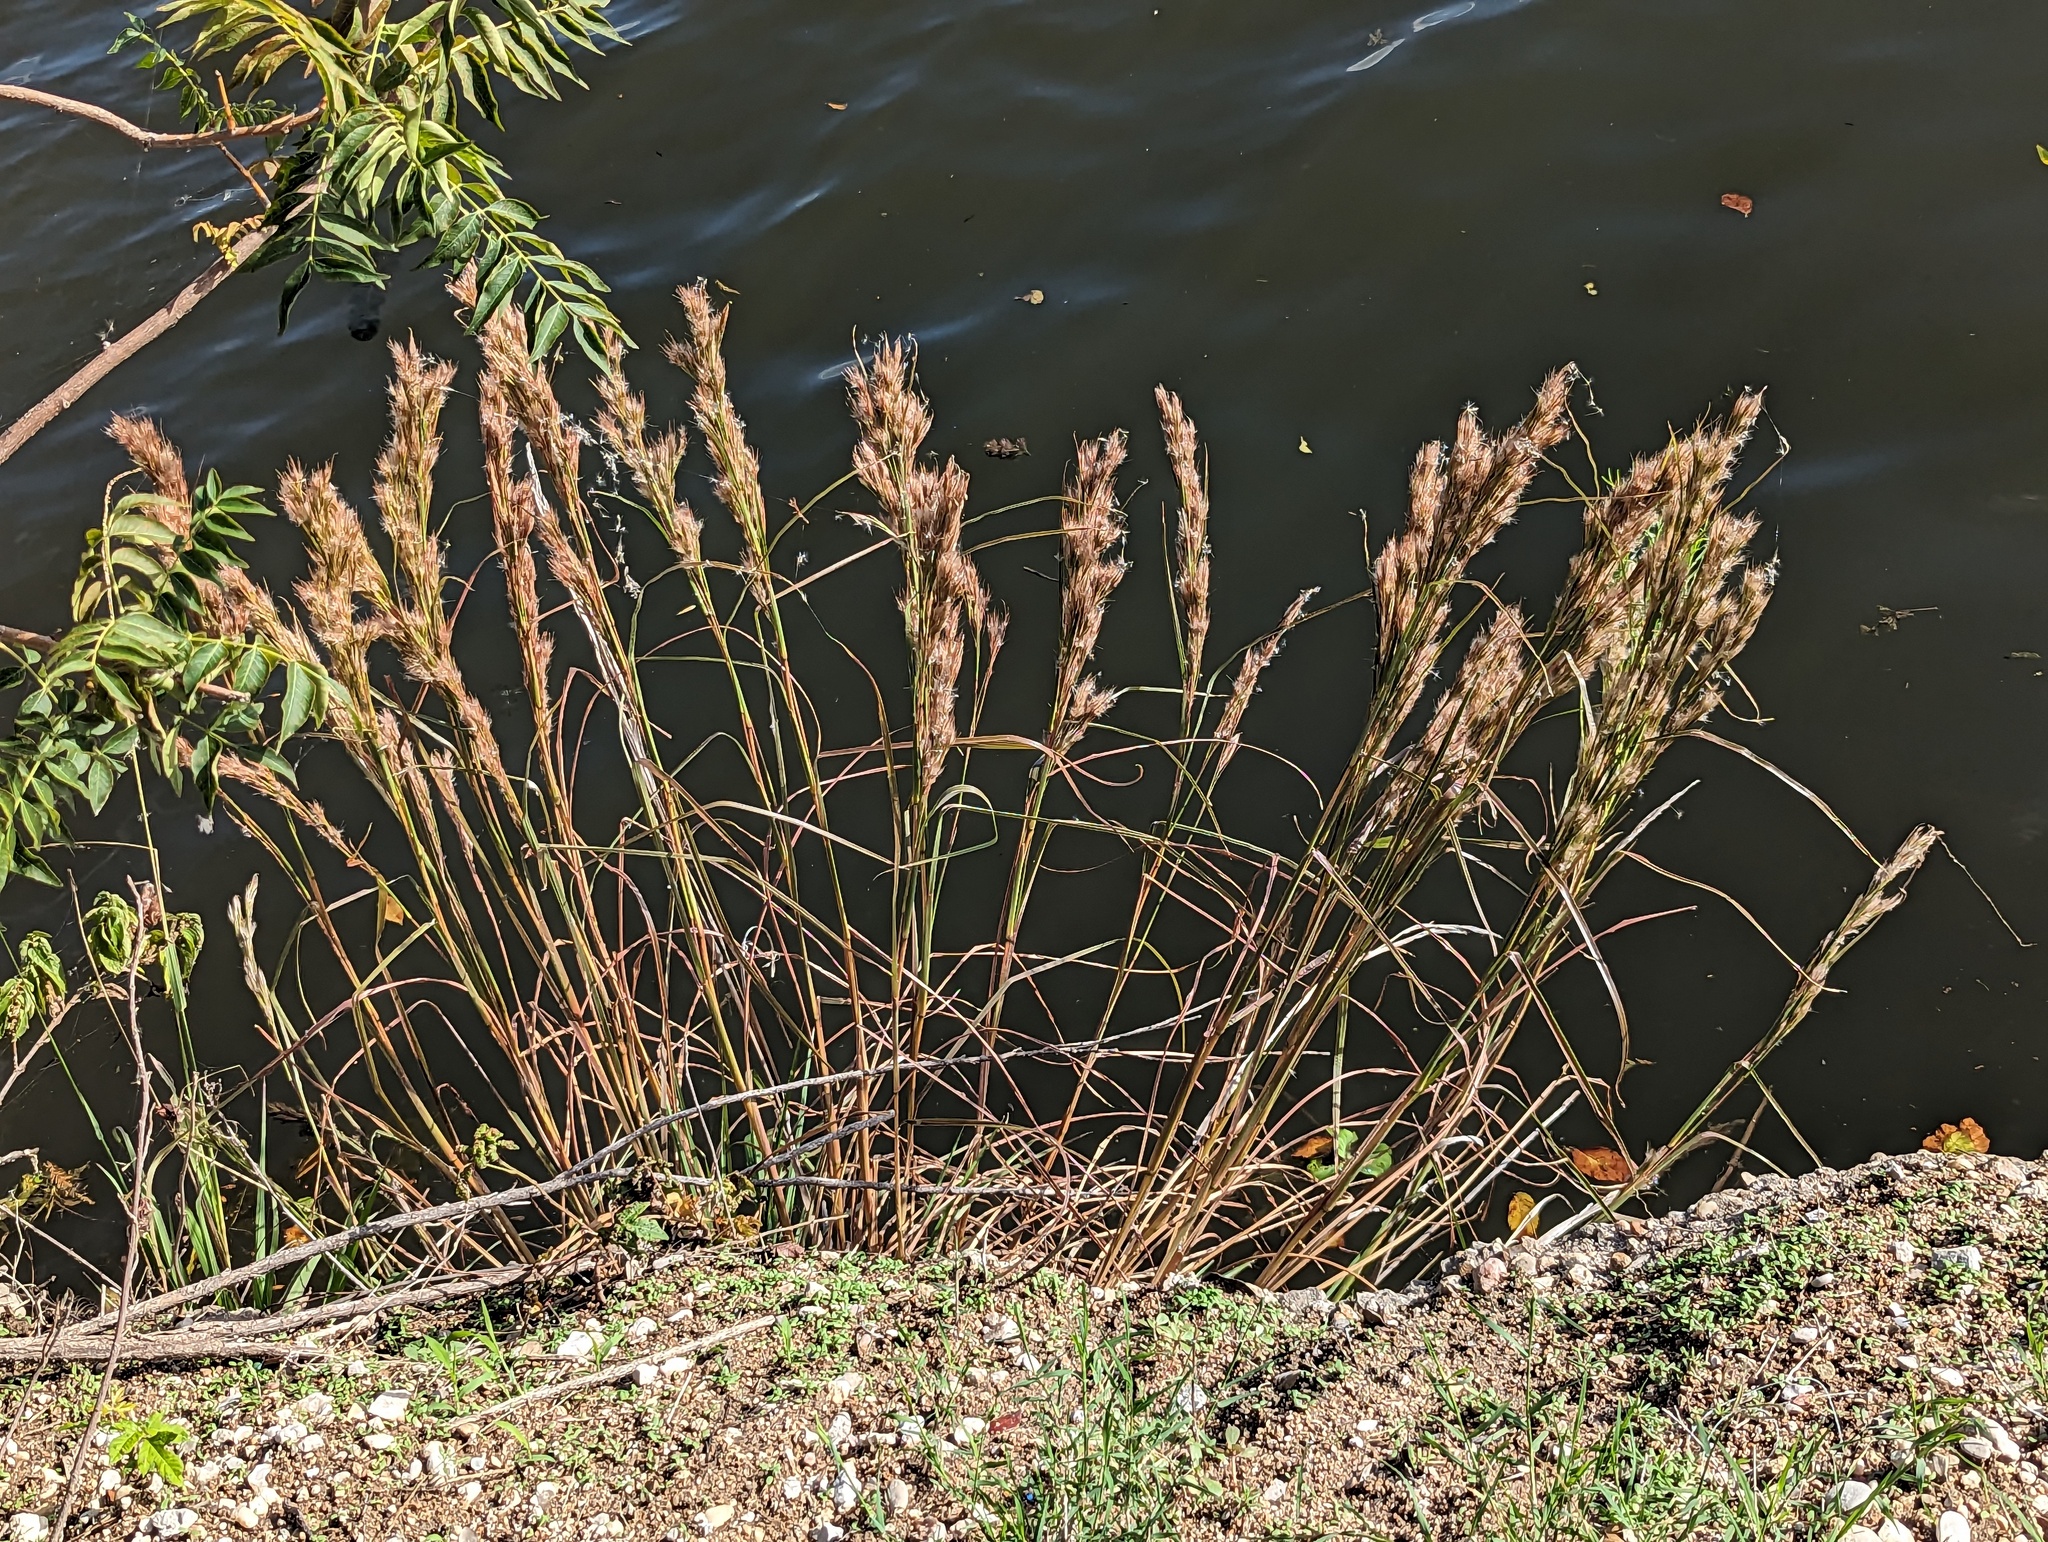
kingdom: Plantae
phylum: Tracheophyta
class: Liliopsida
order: Poales
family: Poaceae
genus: Andropogon
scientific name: Andropogon tenuispatheus
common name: Bushy bluestem
